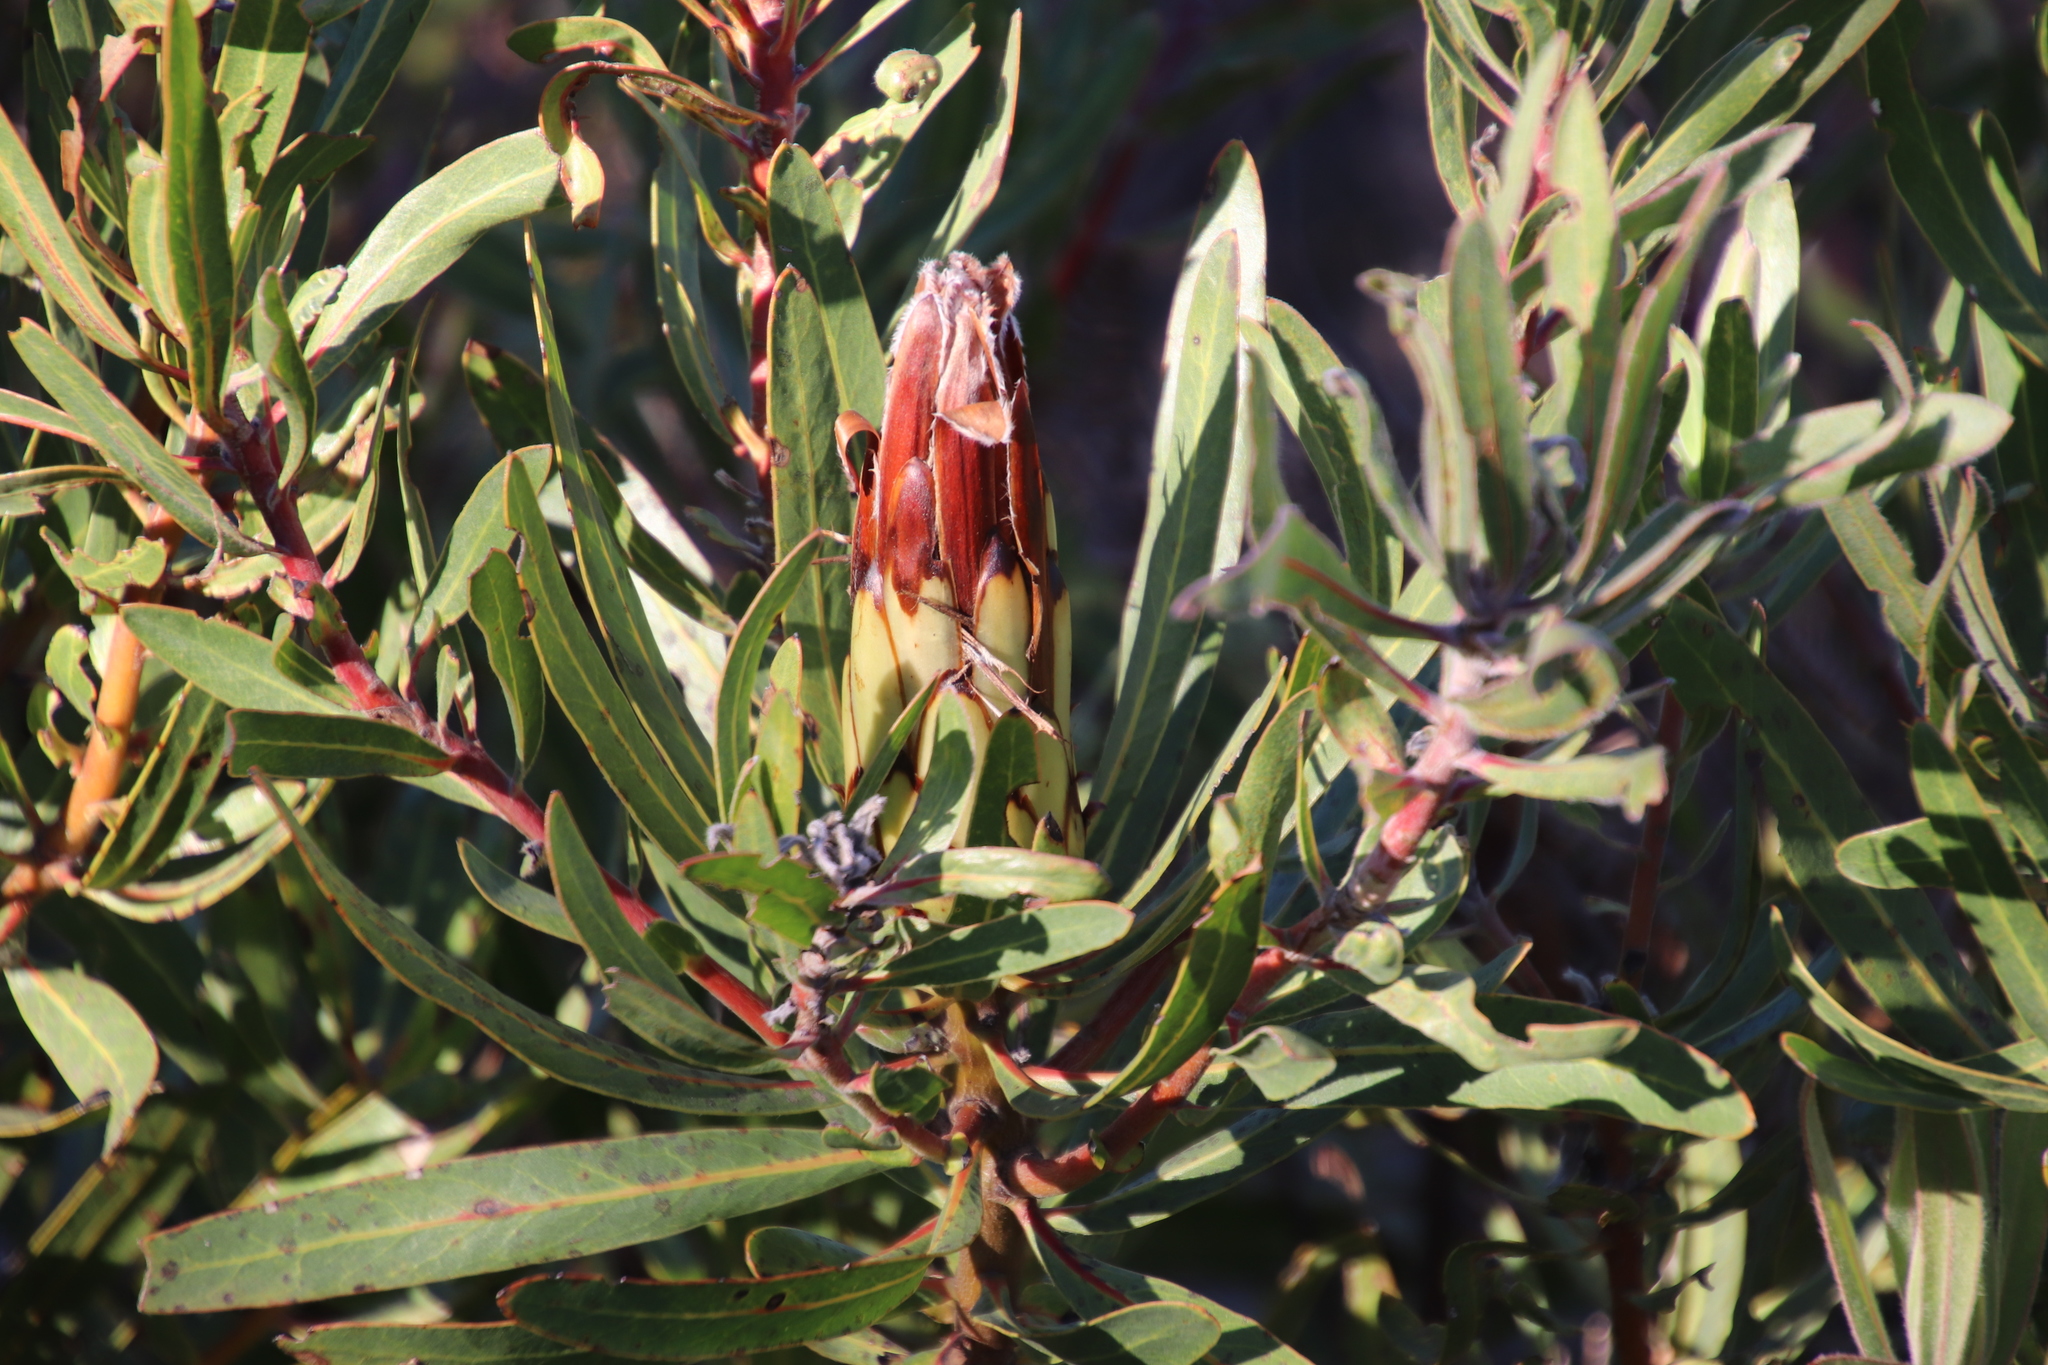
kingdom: Plantae
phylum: Tracheophyta
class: Magnoliopsida
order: Proteales
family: Proteaceae
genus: Protea
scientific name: Protea burchellii
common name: Burchell's sugarbush
